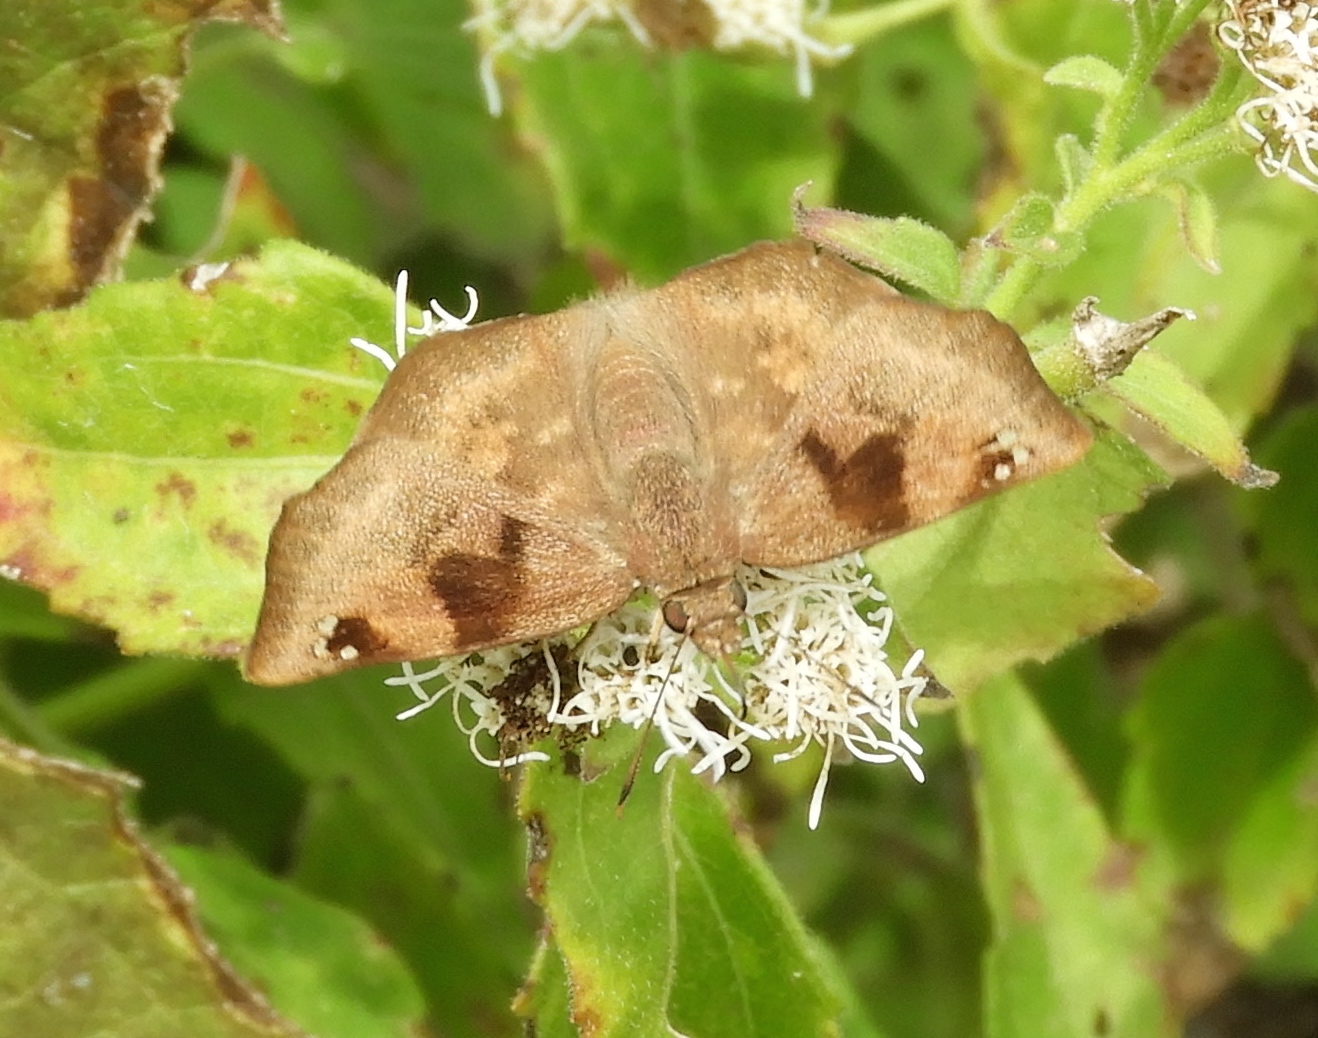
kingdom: Animalia
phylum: Arthropoda
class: Insecta
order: Lepidoptera
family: Hesperiidae
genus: Arteurotia
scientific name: Arteurotia tractipennis
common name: Starred skipper
